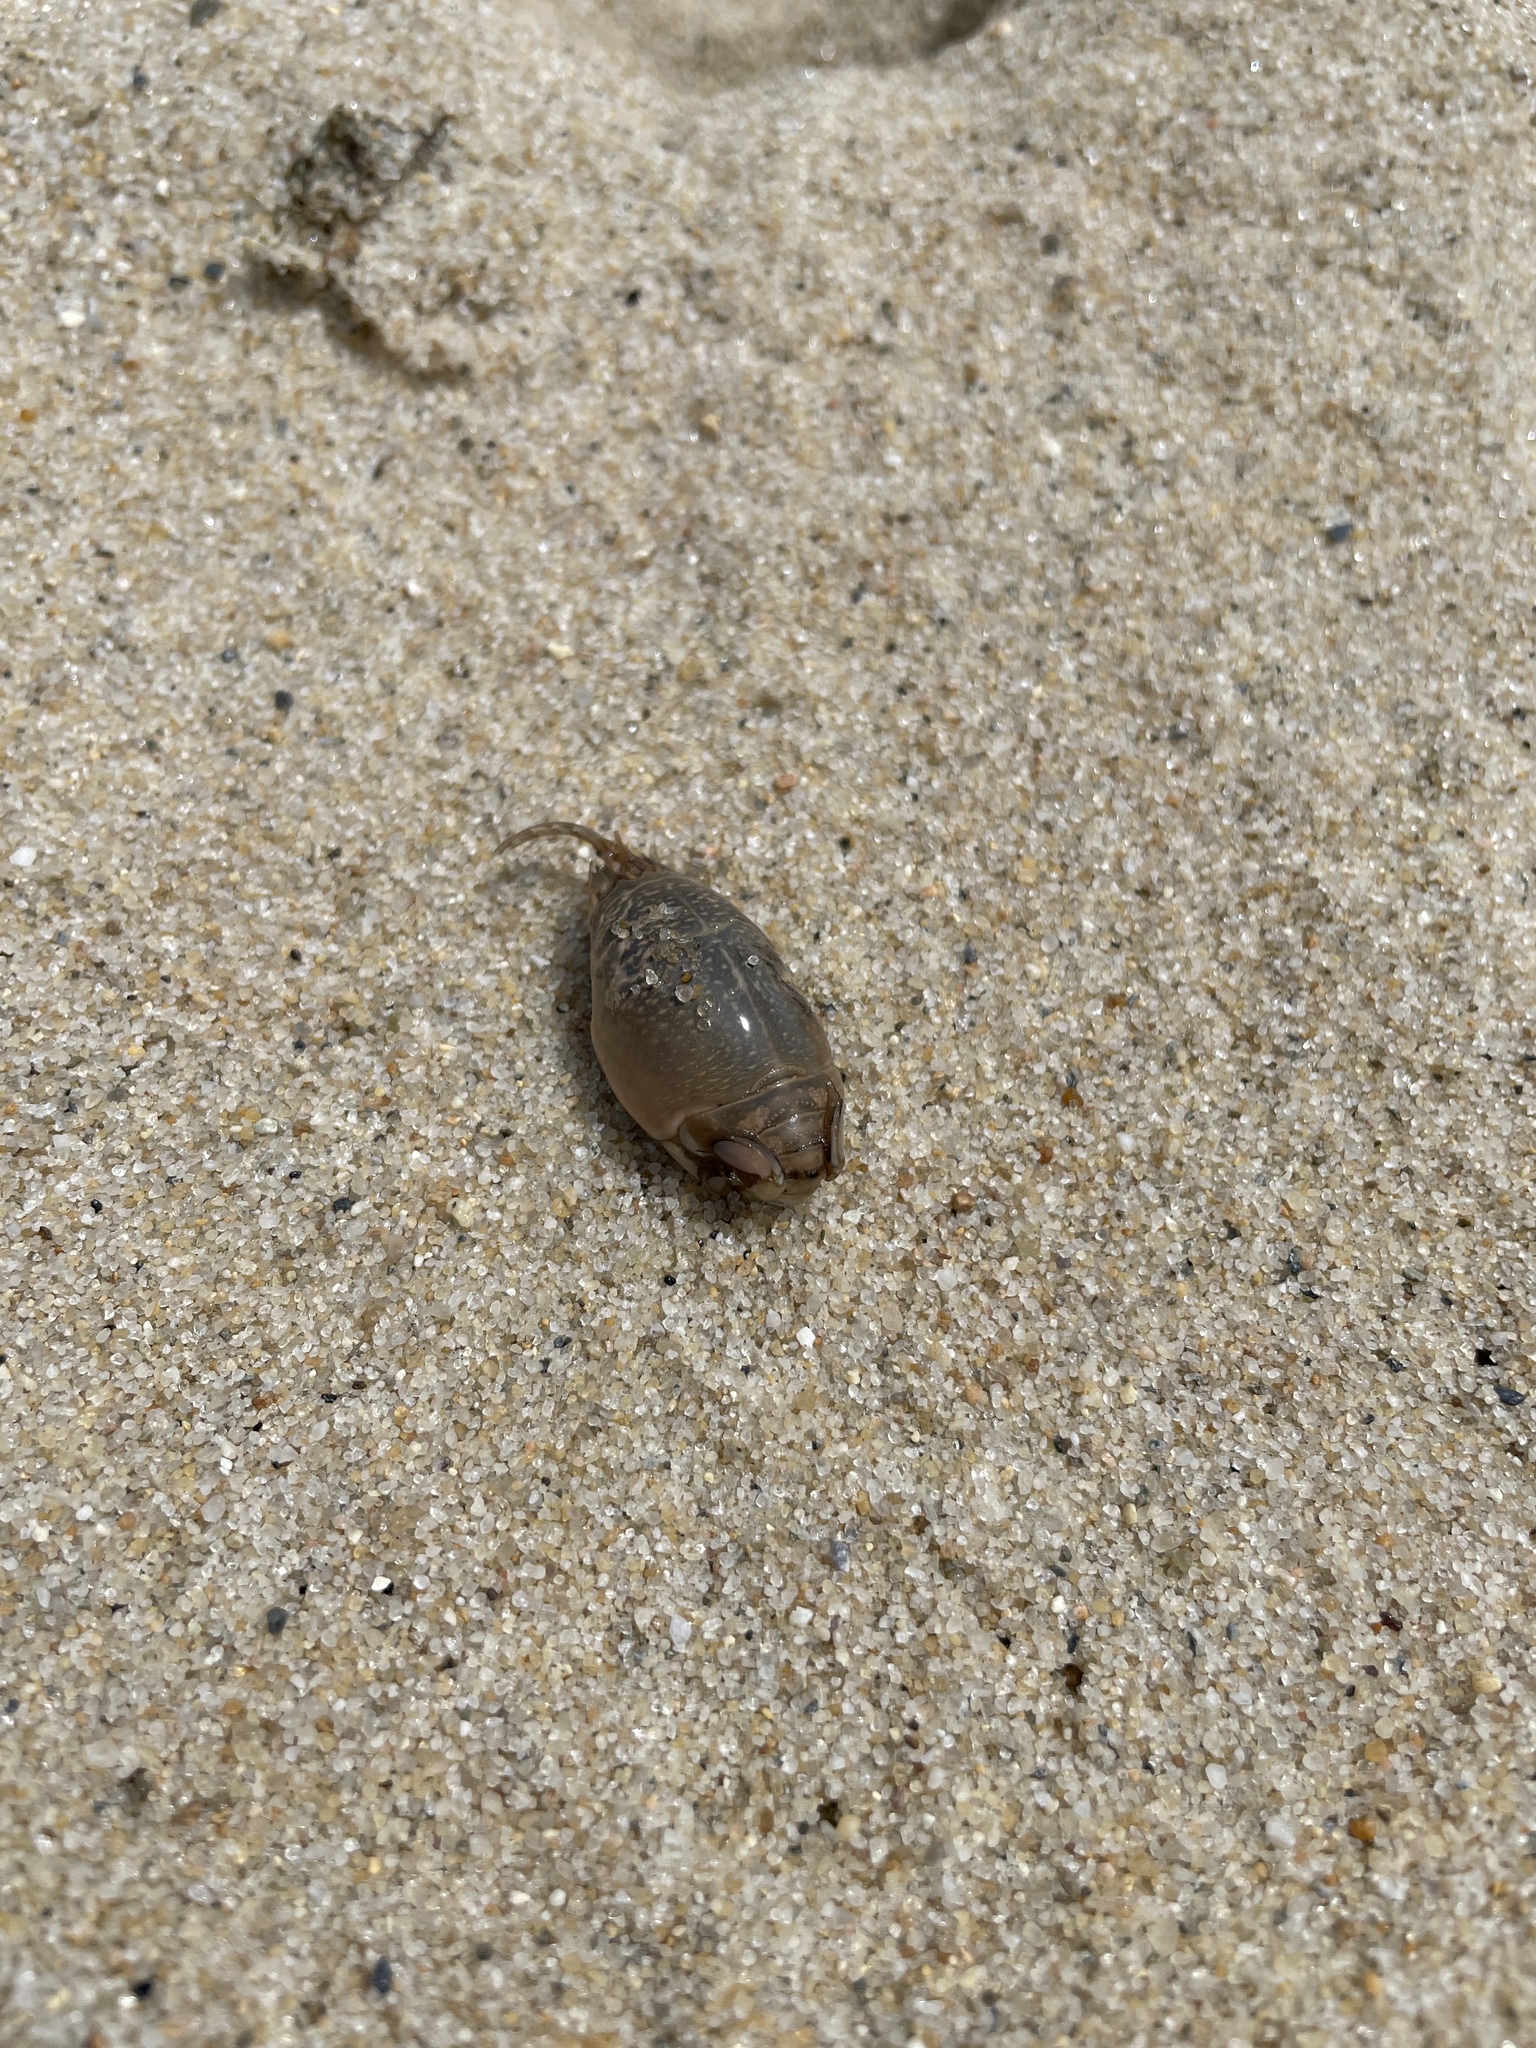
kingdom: Animalia
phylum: Arthropoda
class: Malacostraca
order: Decapoda
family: Hippidae
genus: Emerita
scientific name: Emerita talpoida
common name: Atlantic sand crab
